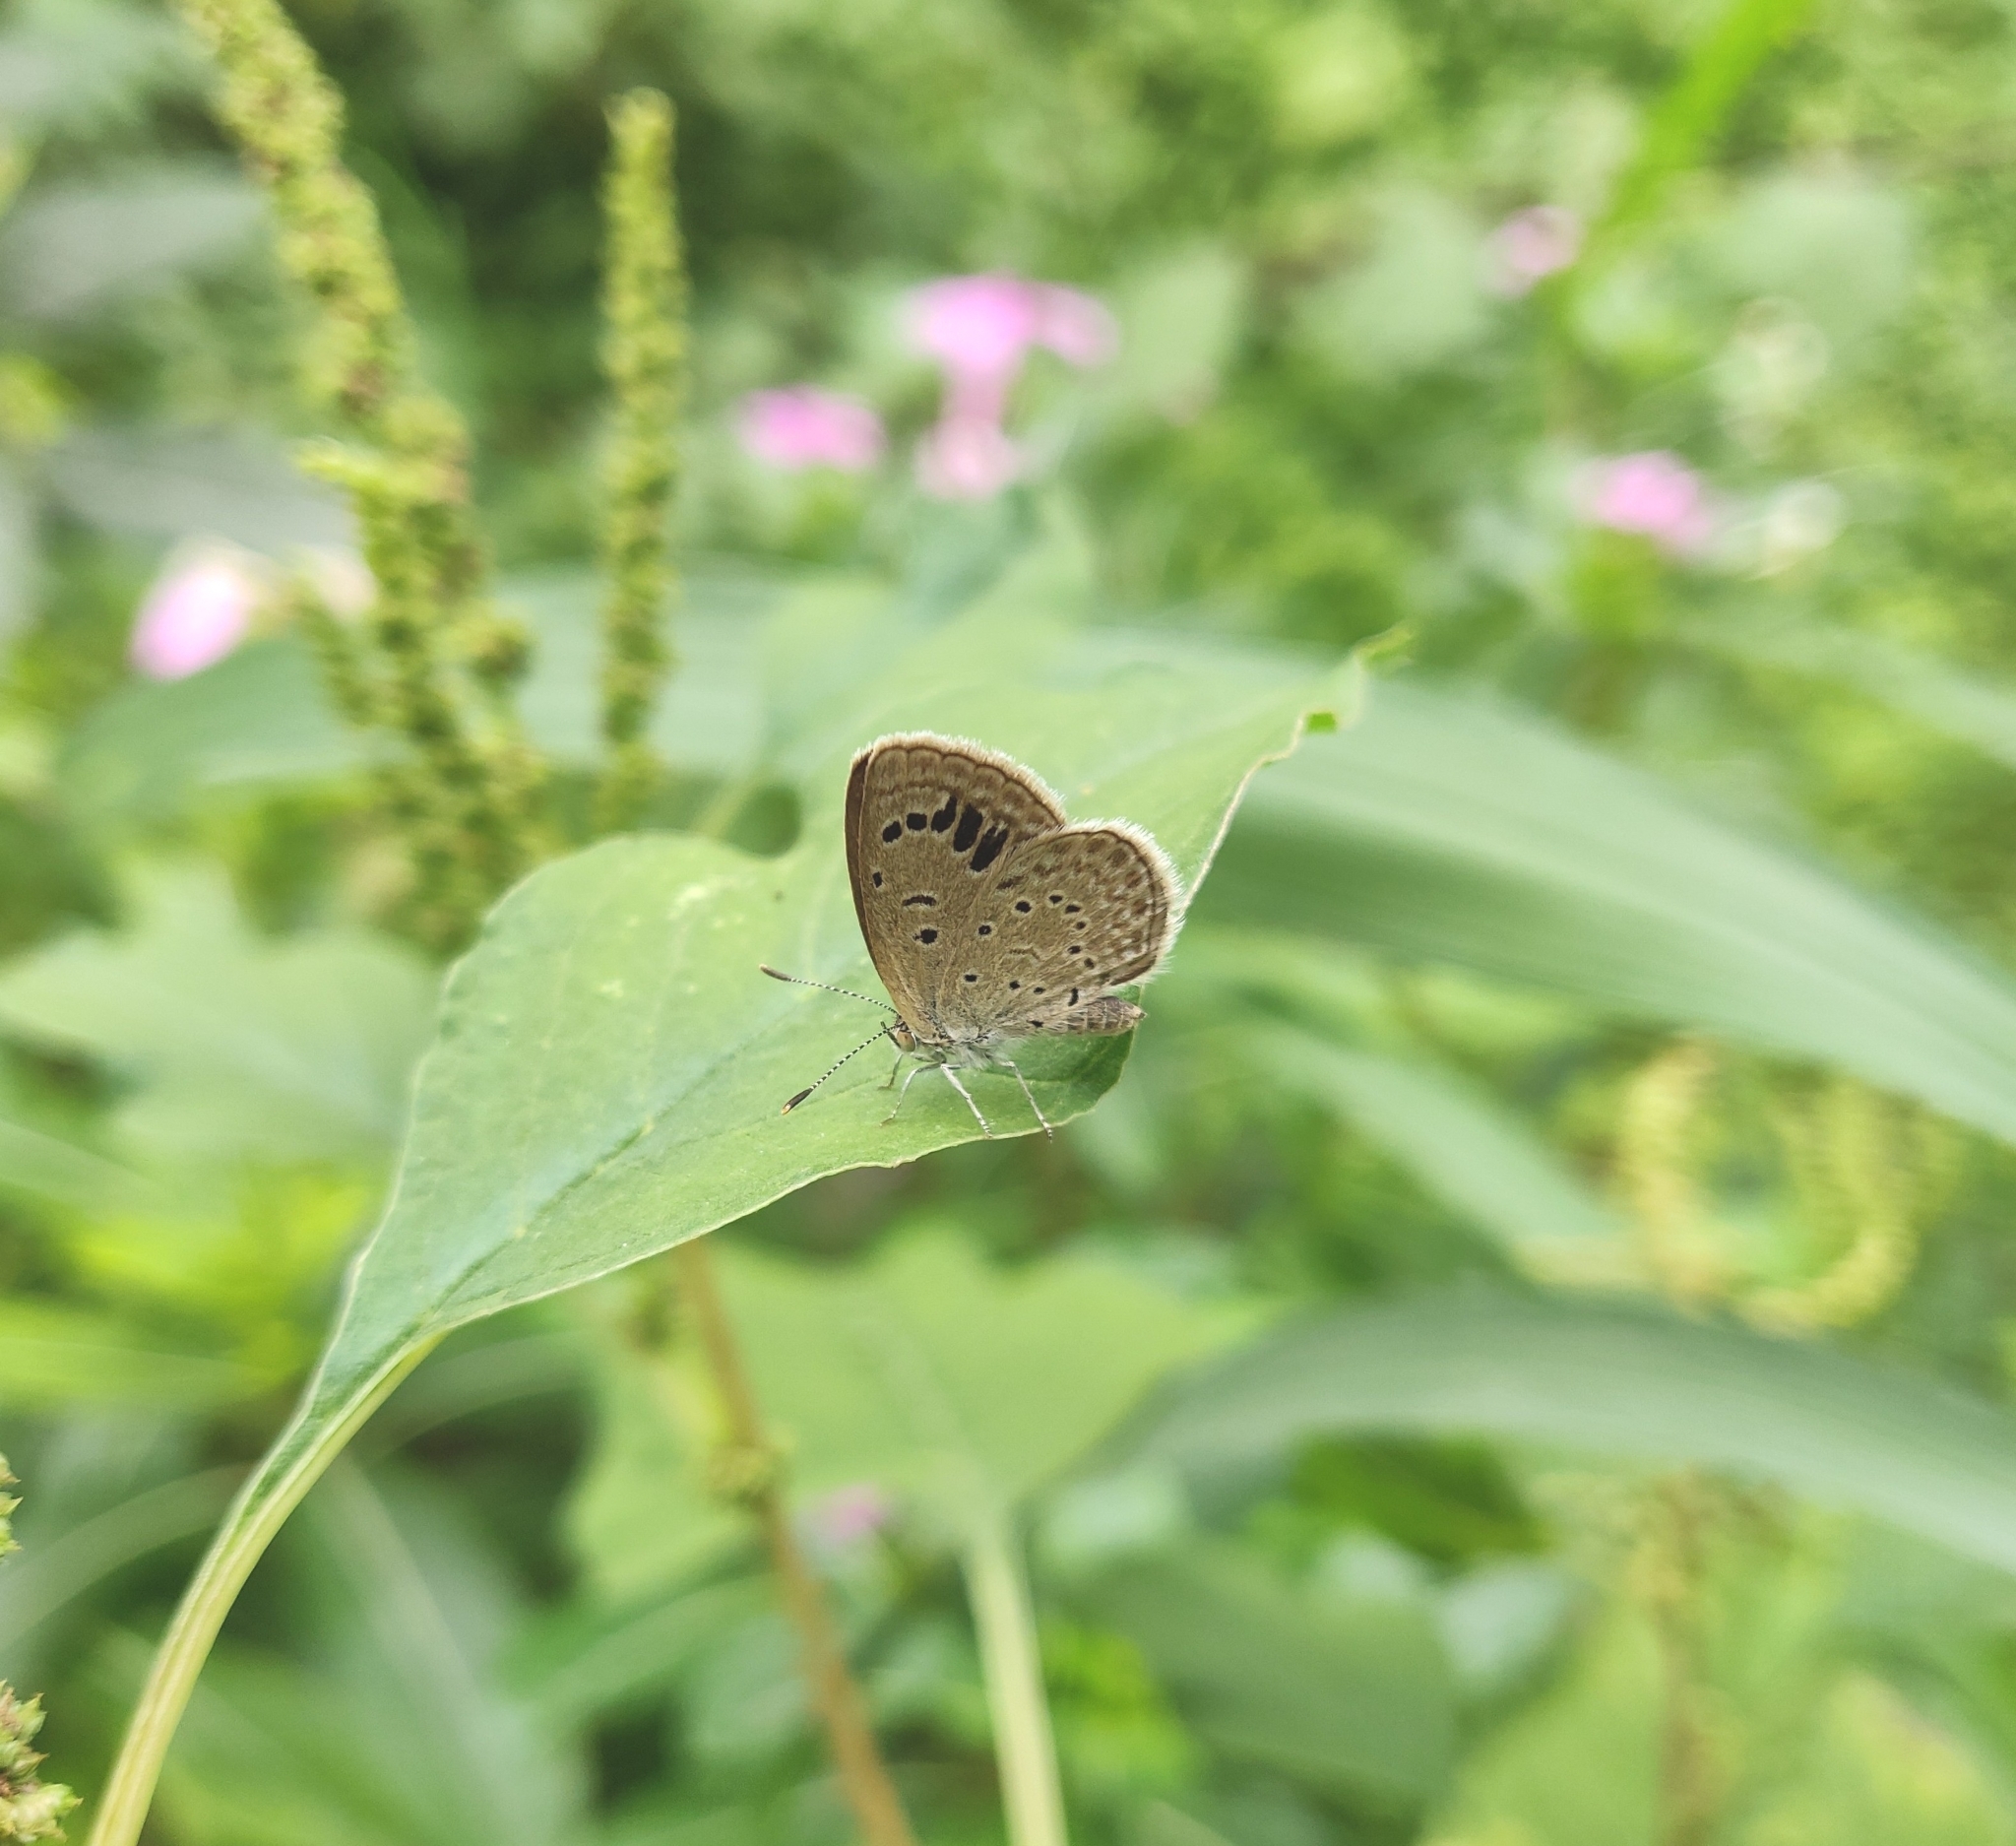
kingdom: Animalia
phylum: Arthropoda
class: Insecta
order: Lepidoptera
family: Lycaenidae
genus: Zizeeria
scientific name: Zizeeria karsandra
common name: Dark grass blue
